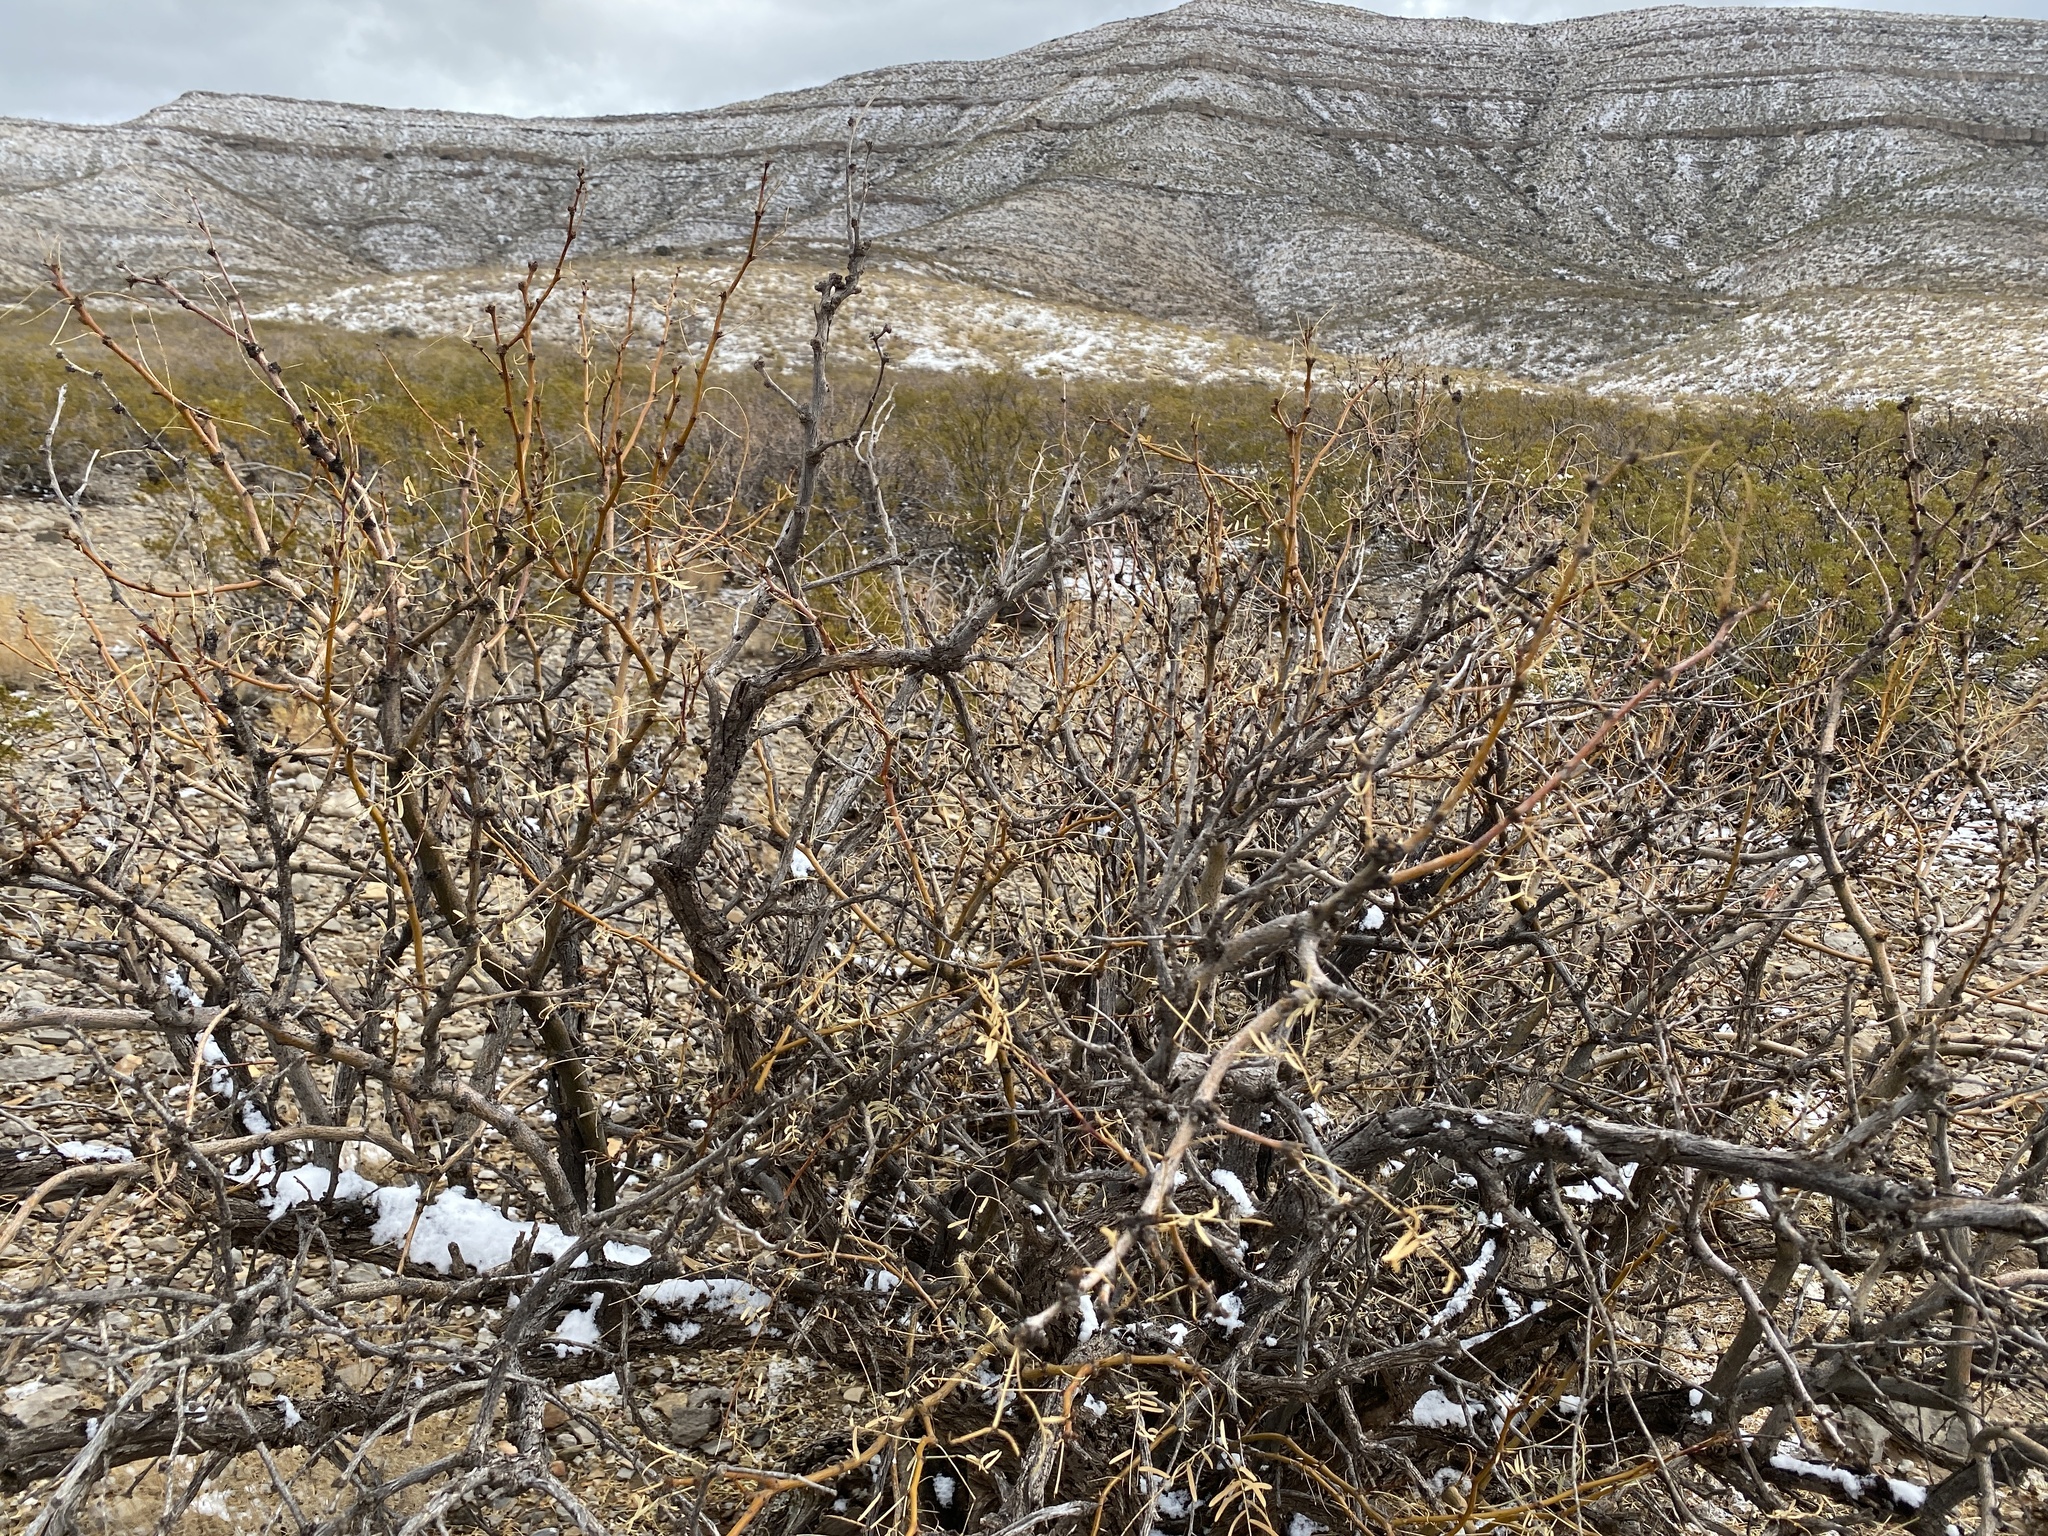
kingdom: Plantae
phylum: Tracheophyta
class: Magnoliopsida
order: Fabales
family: Fabaceae
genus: Prosopis
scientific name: Prosopis glandulosa
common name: Honey mesquite
